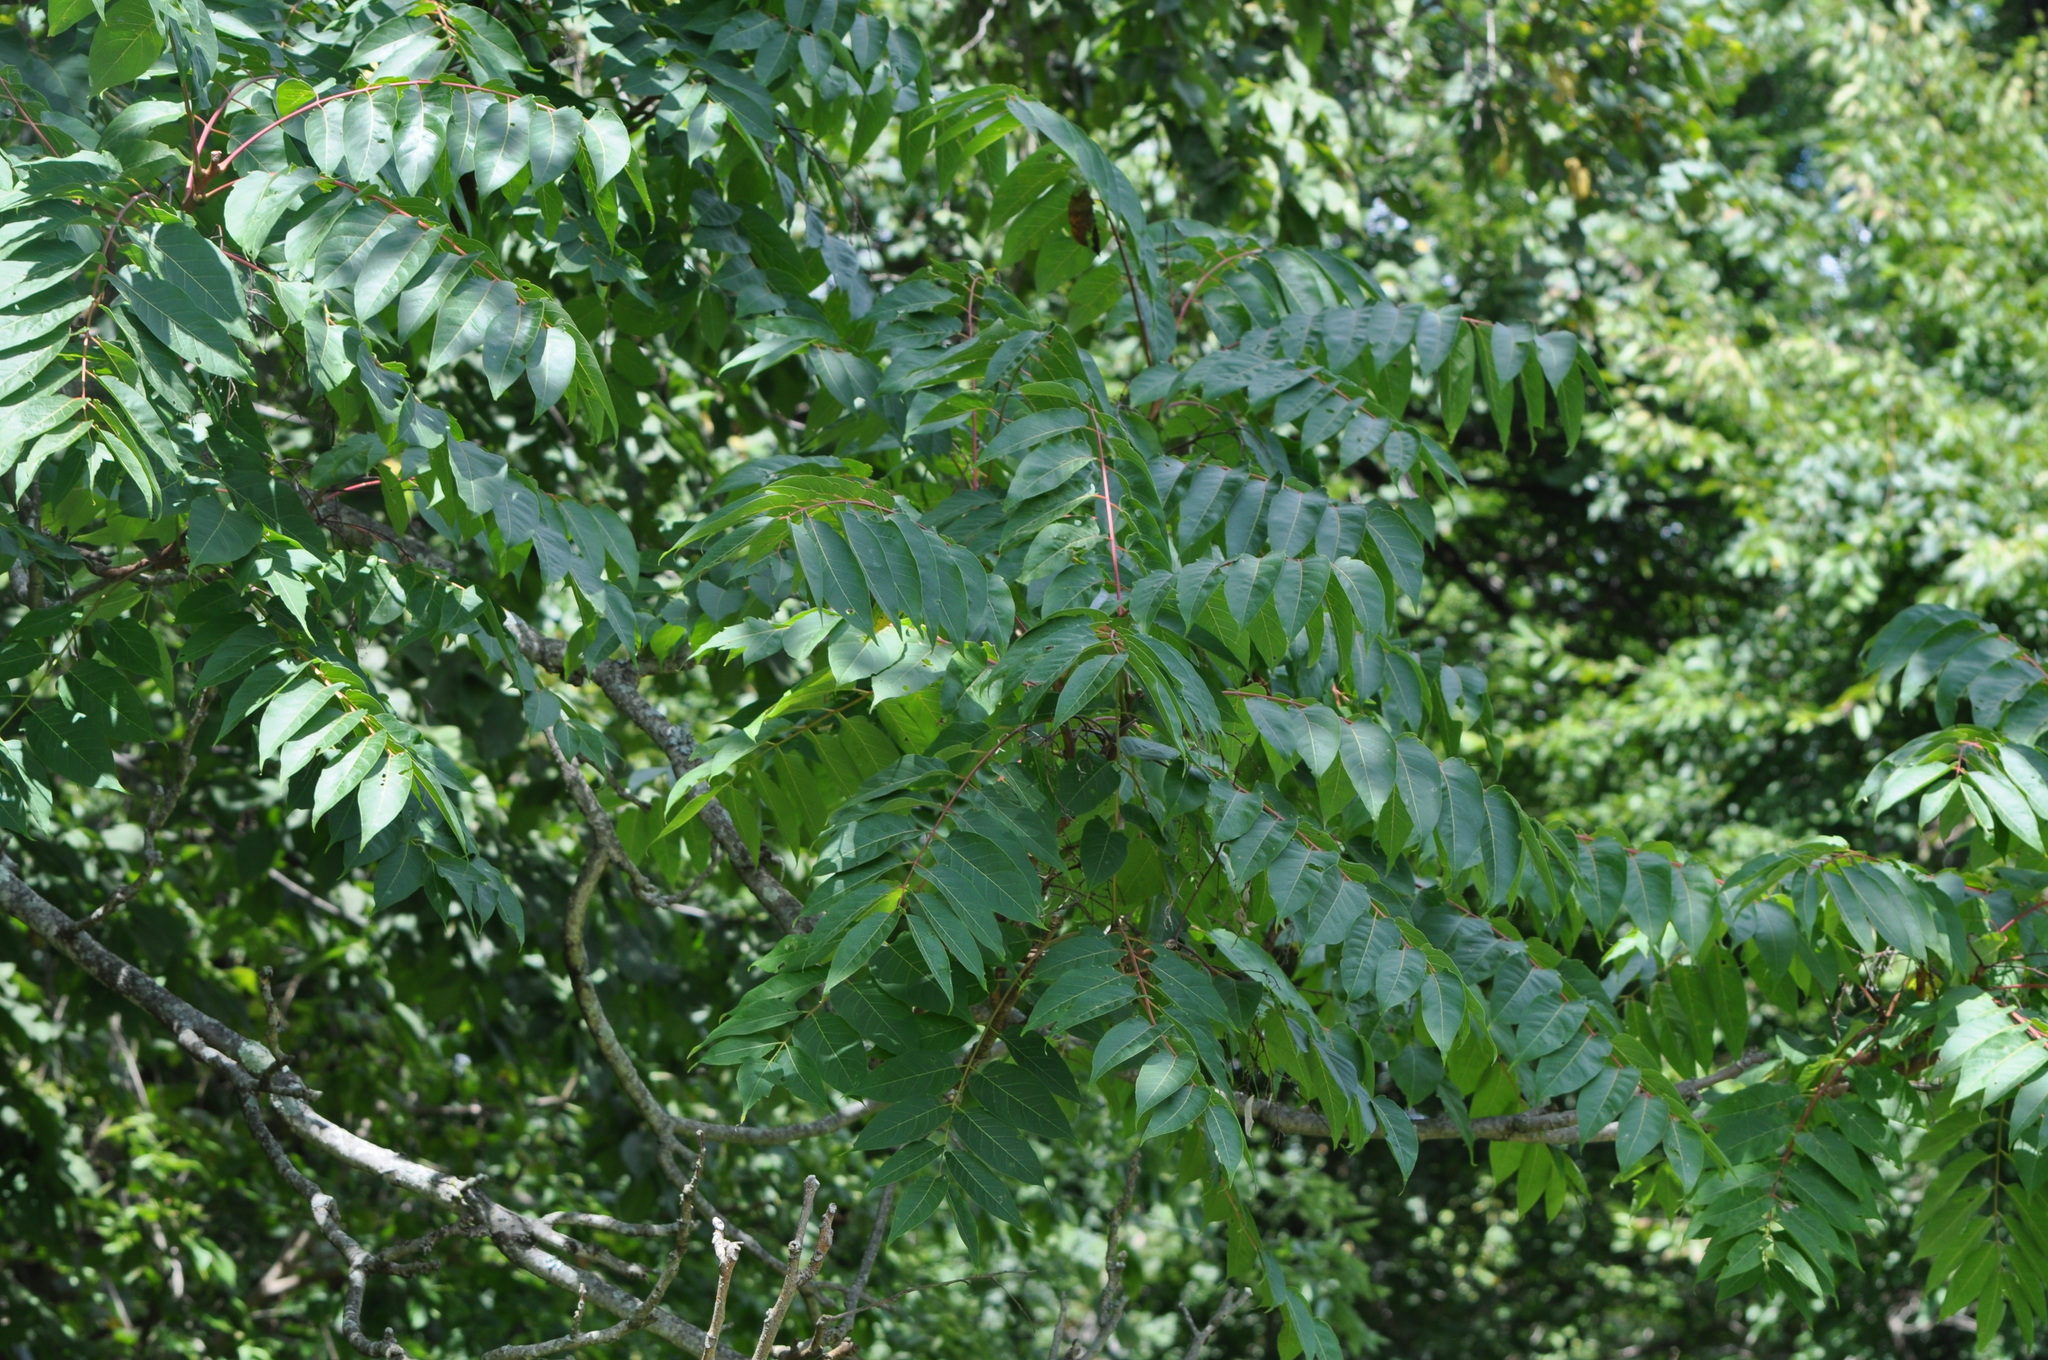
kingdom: Plantae
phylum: Tracheophyta
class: Magnoliopsida
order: Sapindales
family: Simaroubaceae
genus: Ailanthus
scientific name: Ailanthus altissima
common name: Tree-of-heaven
